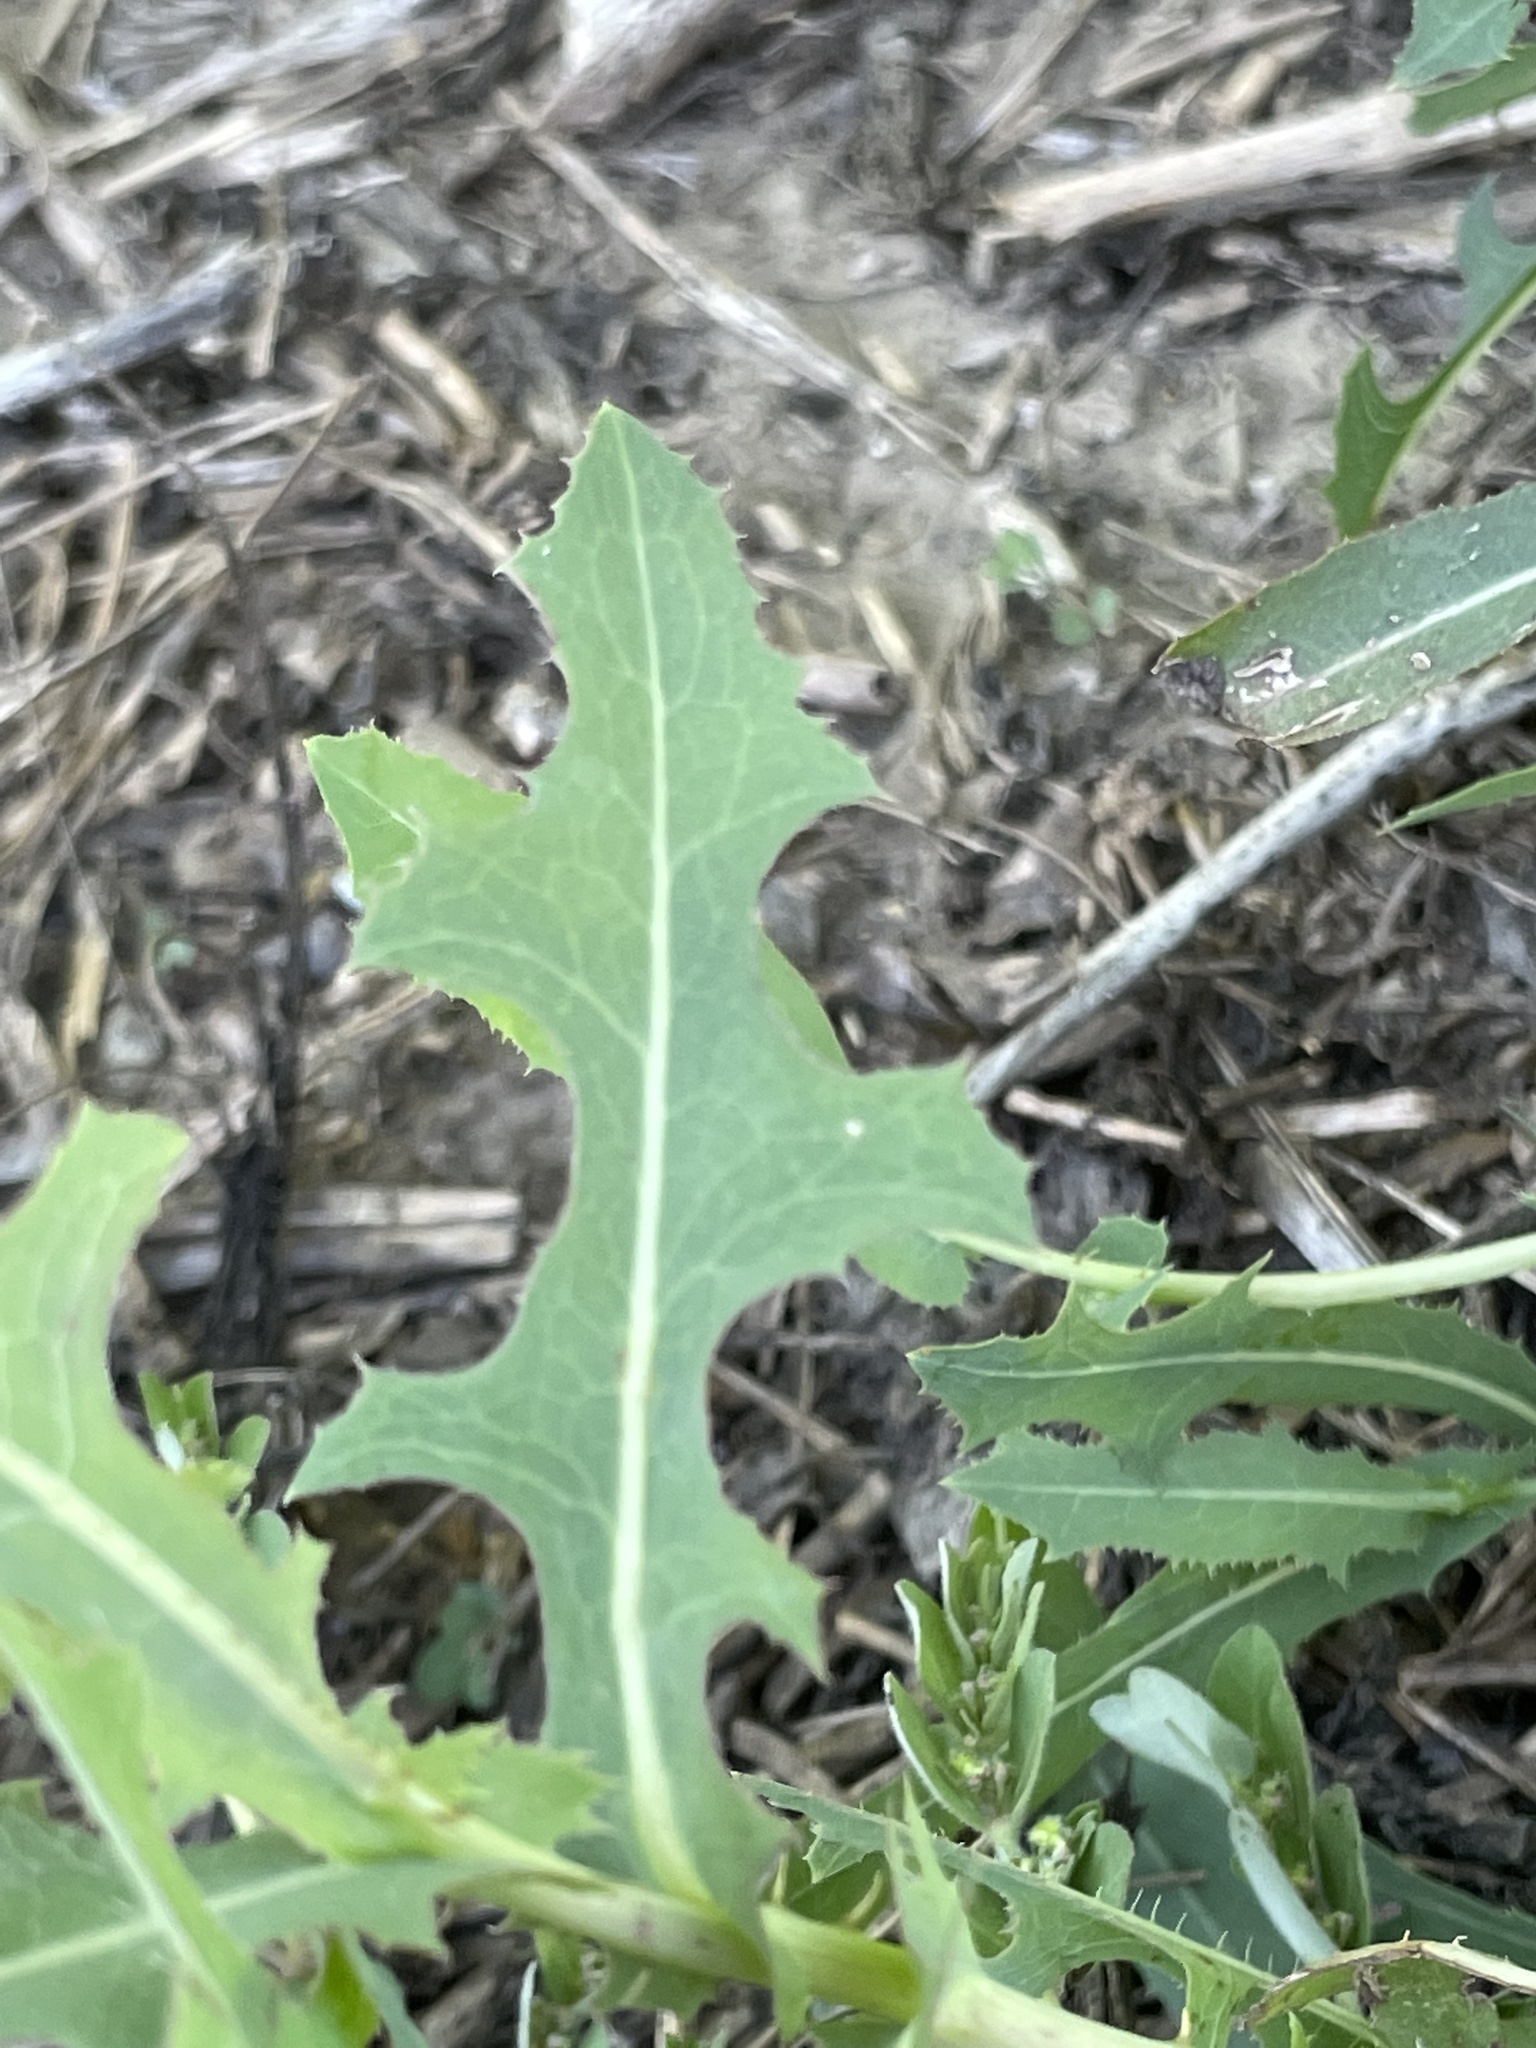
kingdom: Plantae
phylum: Tracheophyta
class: Magnoliopsida
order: Asterales
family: Asteraceae
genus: Lactuca
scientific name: Lactuca serriola
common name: Prickly lettuce
